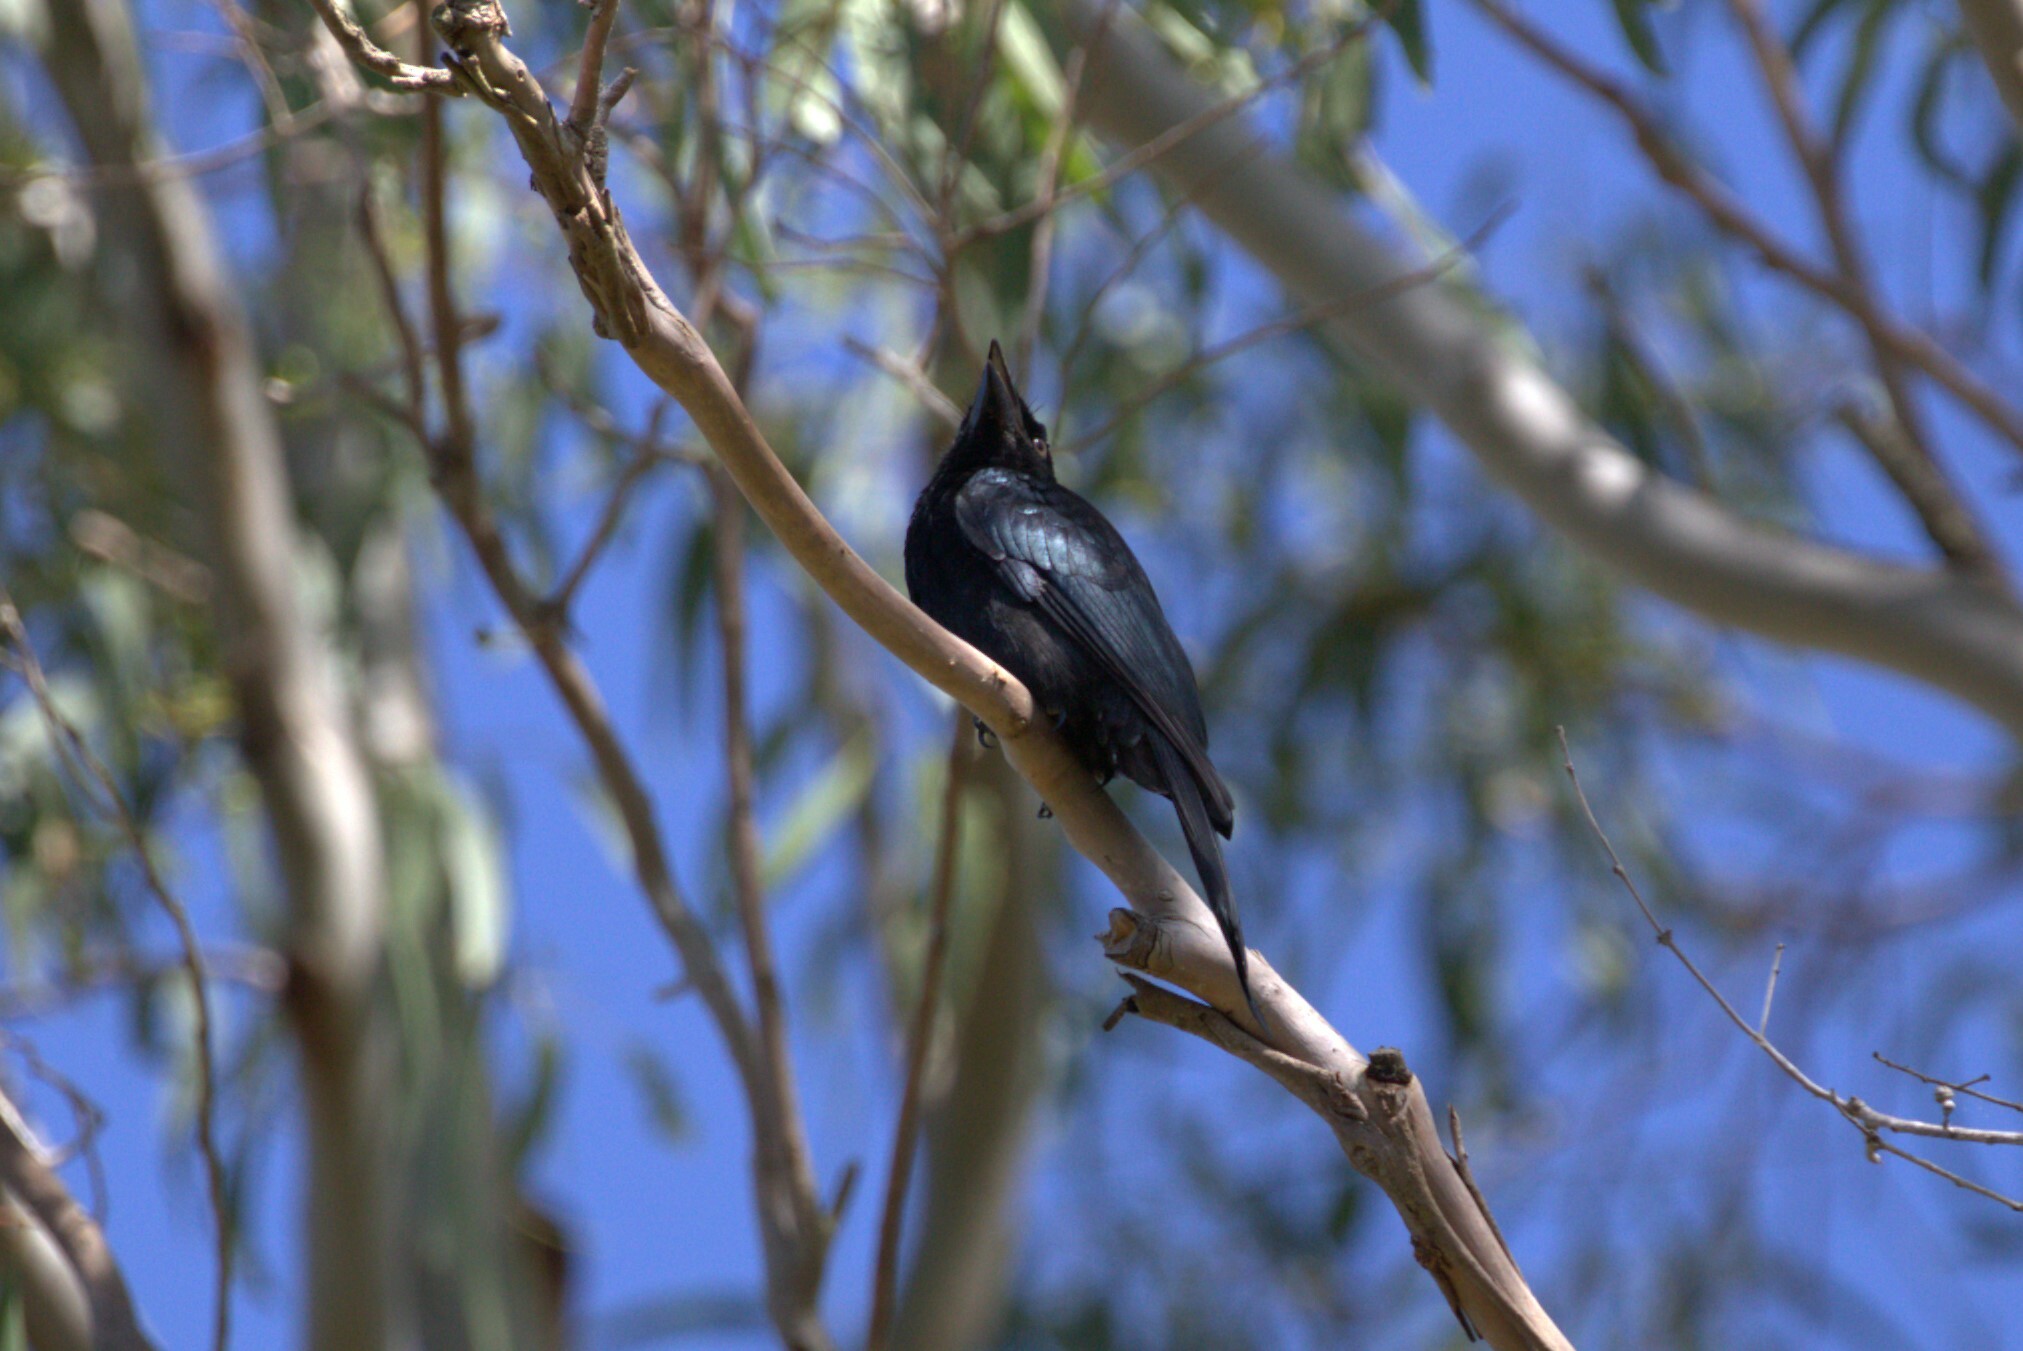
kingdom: Animalia
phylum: Chordata
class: Aves
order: Passeriformes
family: Dicruridae
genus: Dicrurus
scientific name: Dicrurus bracteatus
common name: Spangled drongo
